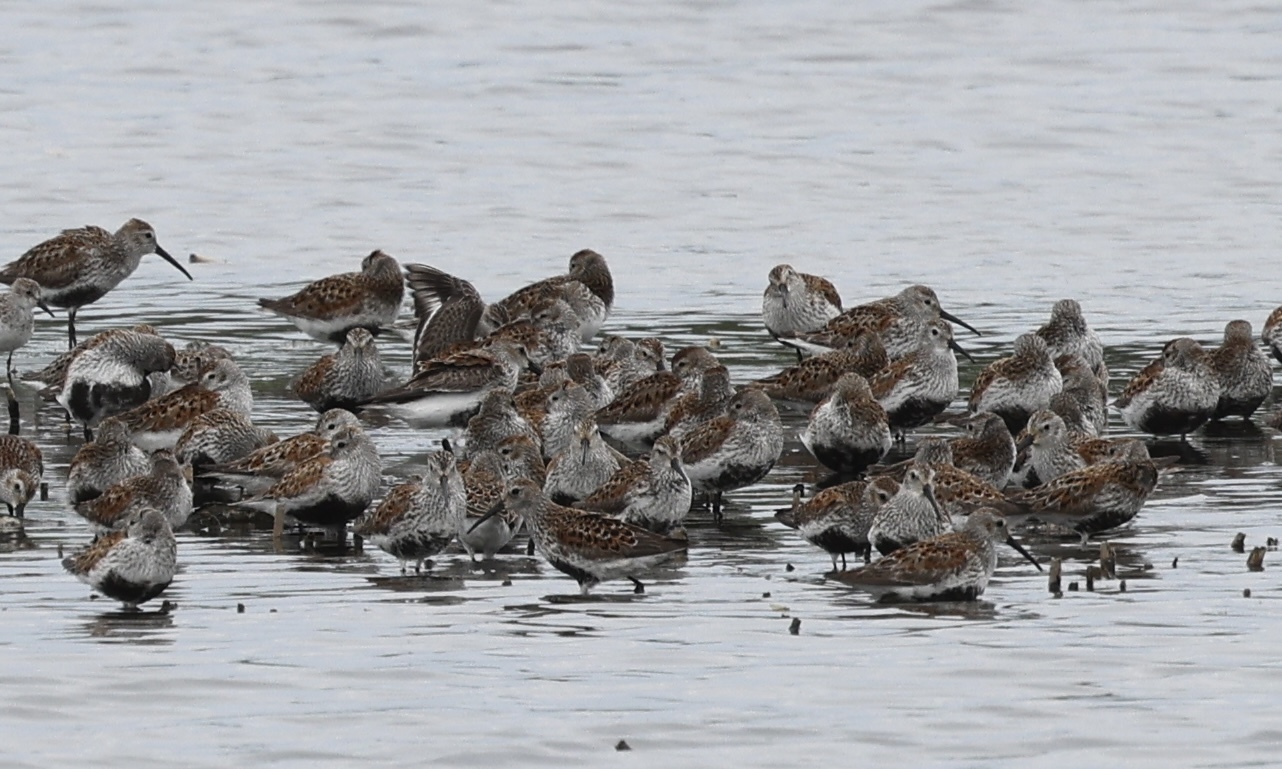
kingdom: Animalia
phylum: Chordata
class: Aves
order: Charadriiformes
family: Scolopacidae
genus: Calidris
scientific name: Calidris alpina
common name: Dunlin
